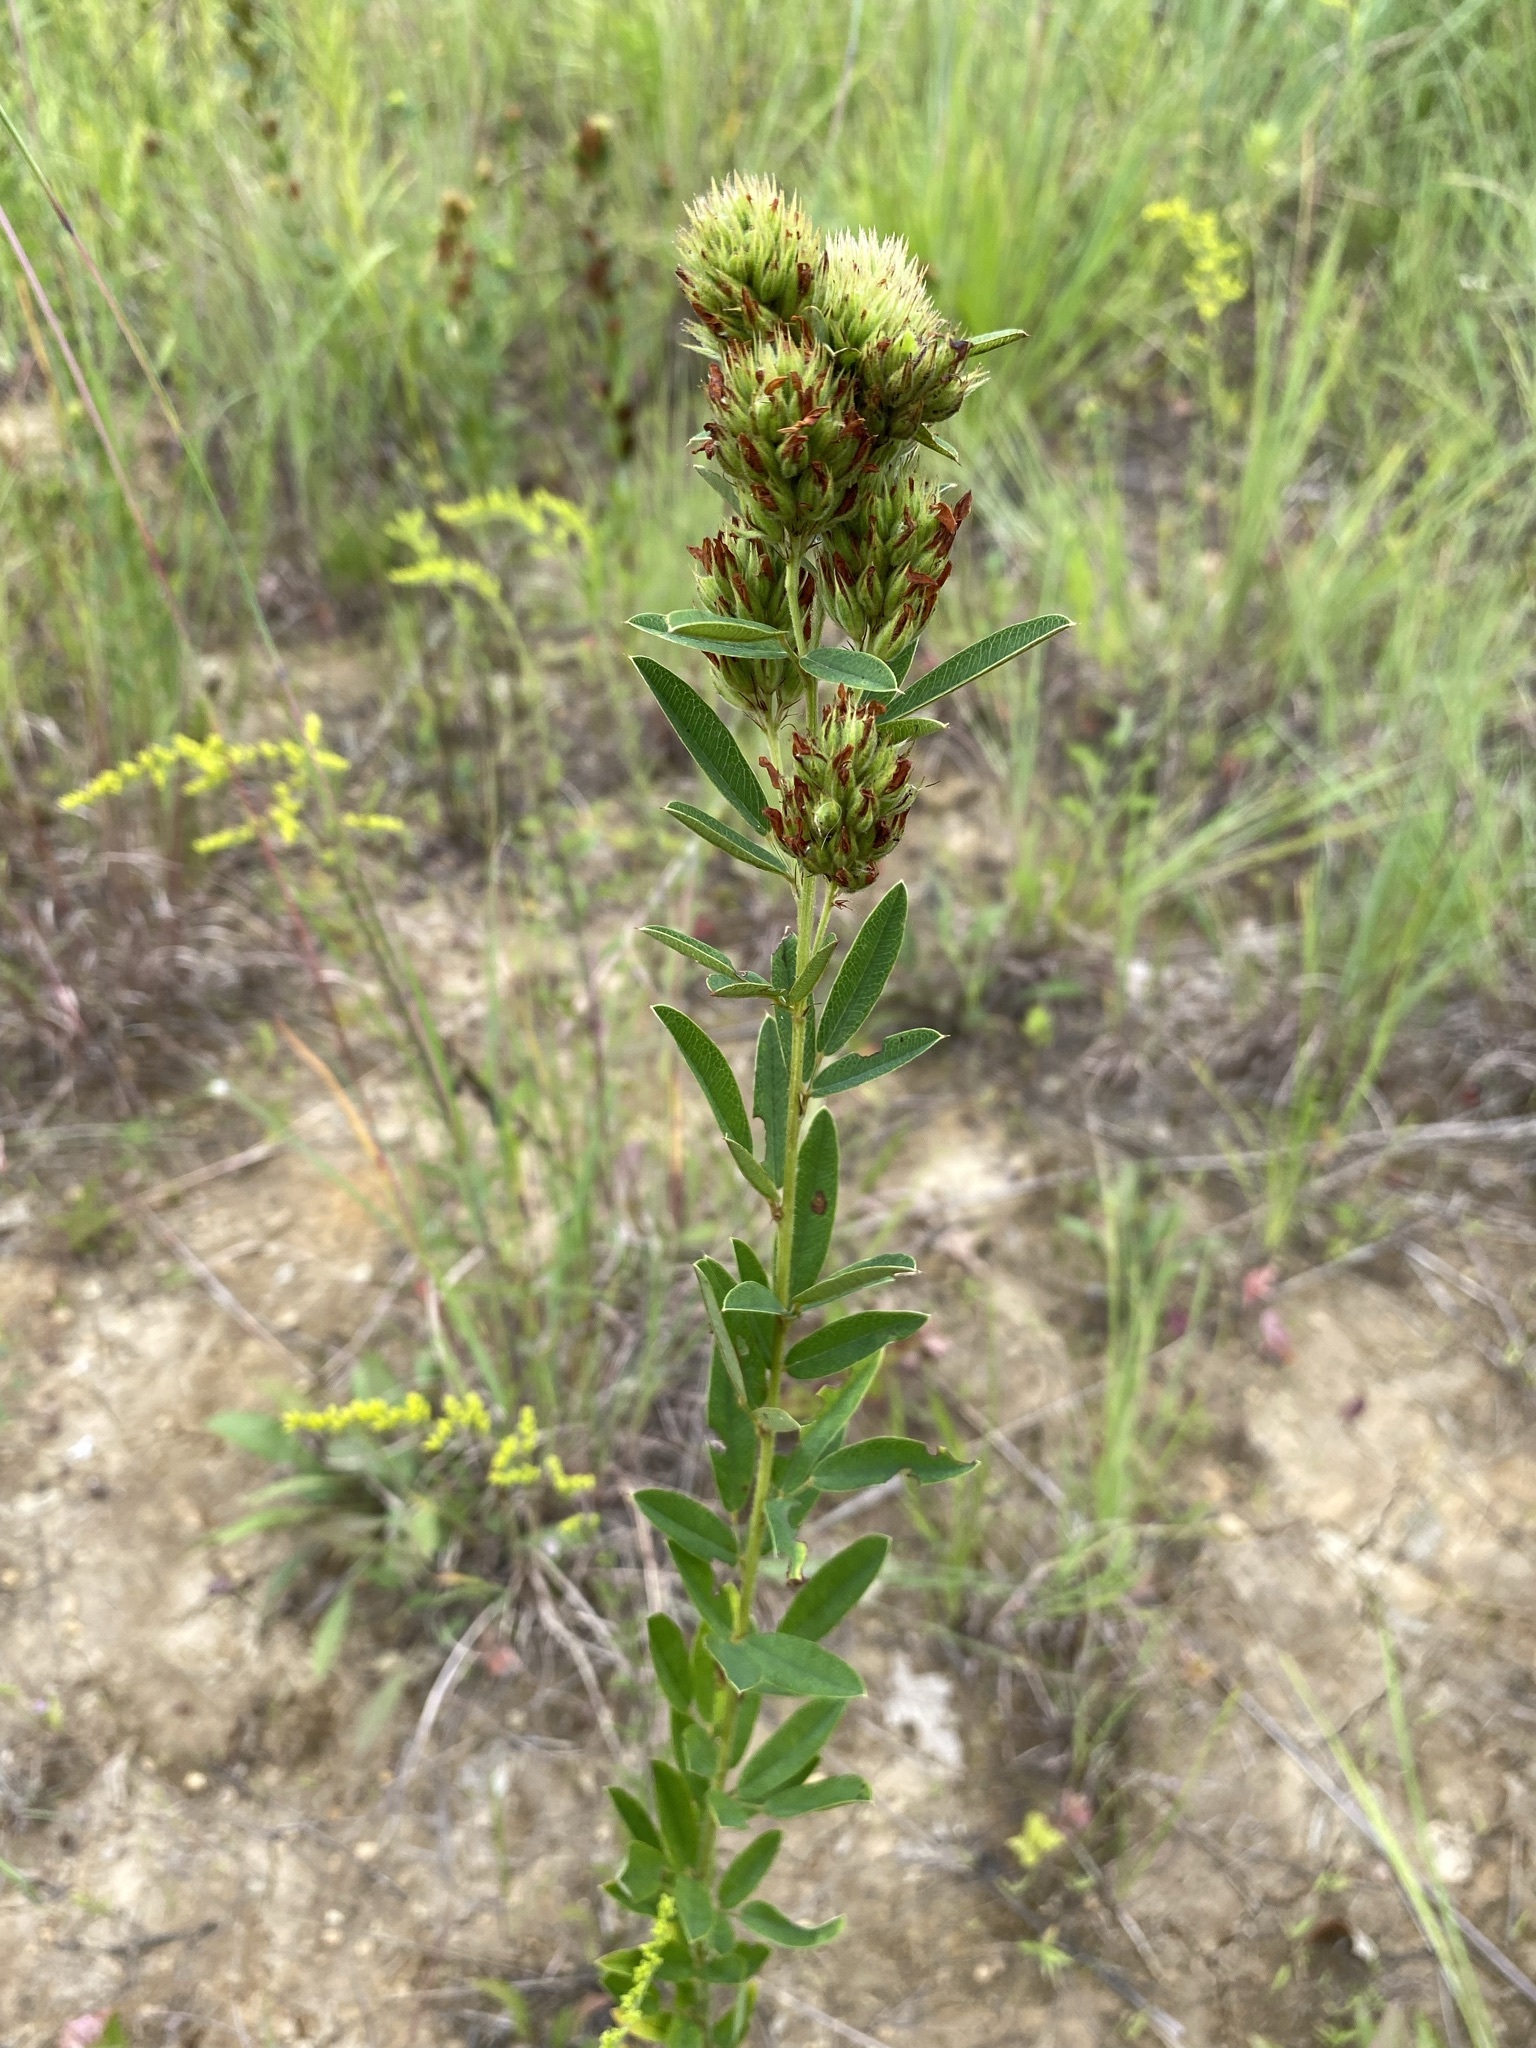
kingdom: Plantae
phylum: Tracheophyta
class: Magnoliopsida
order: Fabales
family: Fabaceae
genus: Lespedeza
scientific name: Lespedeza capitata
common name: Dusty clover
